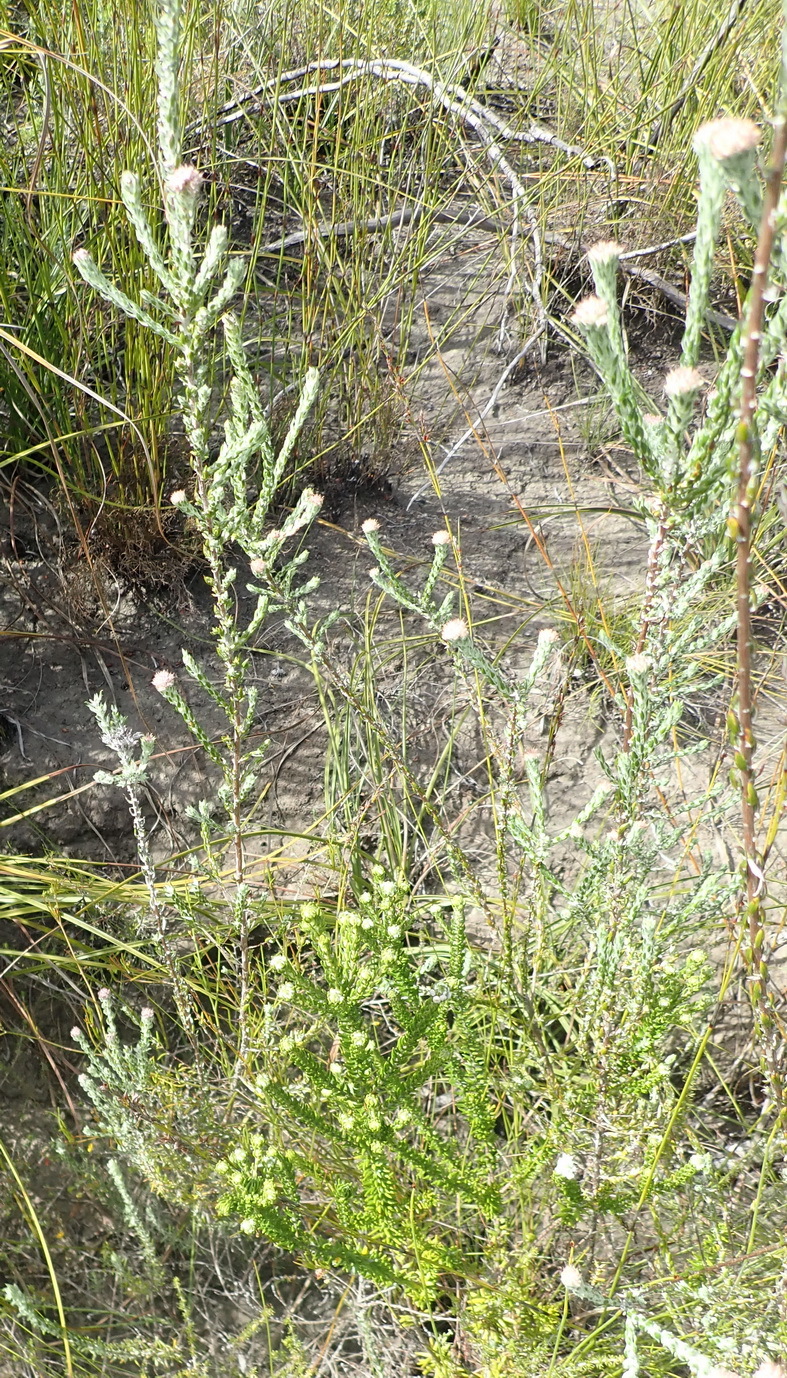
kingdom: Plantae
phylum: Tracheophyta
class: Magnoliopsida
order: Rosales
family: Rhamnaceae
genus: Phylica
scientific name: Phylica purpurea
